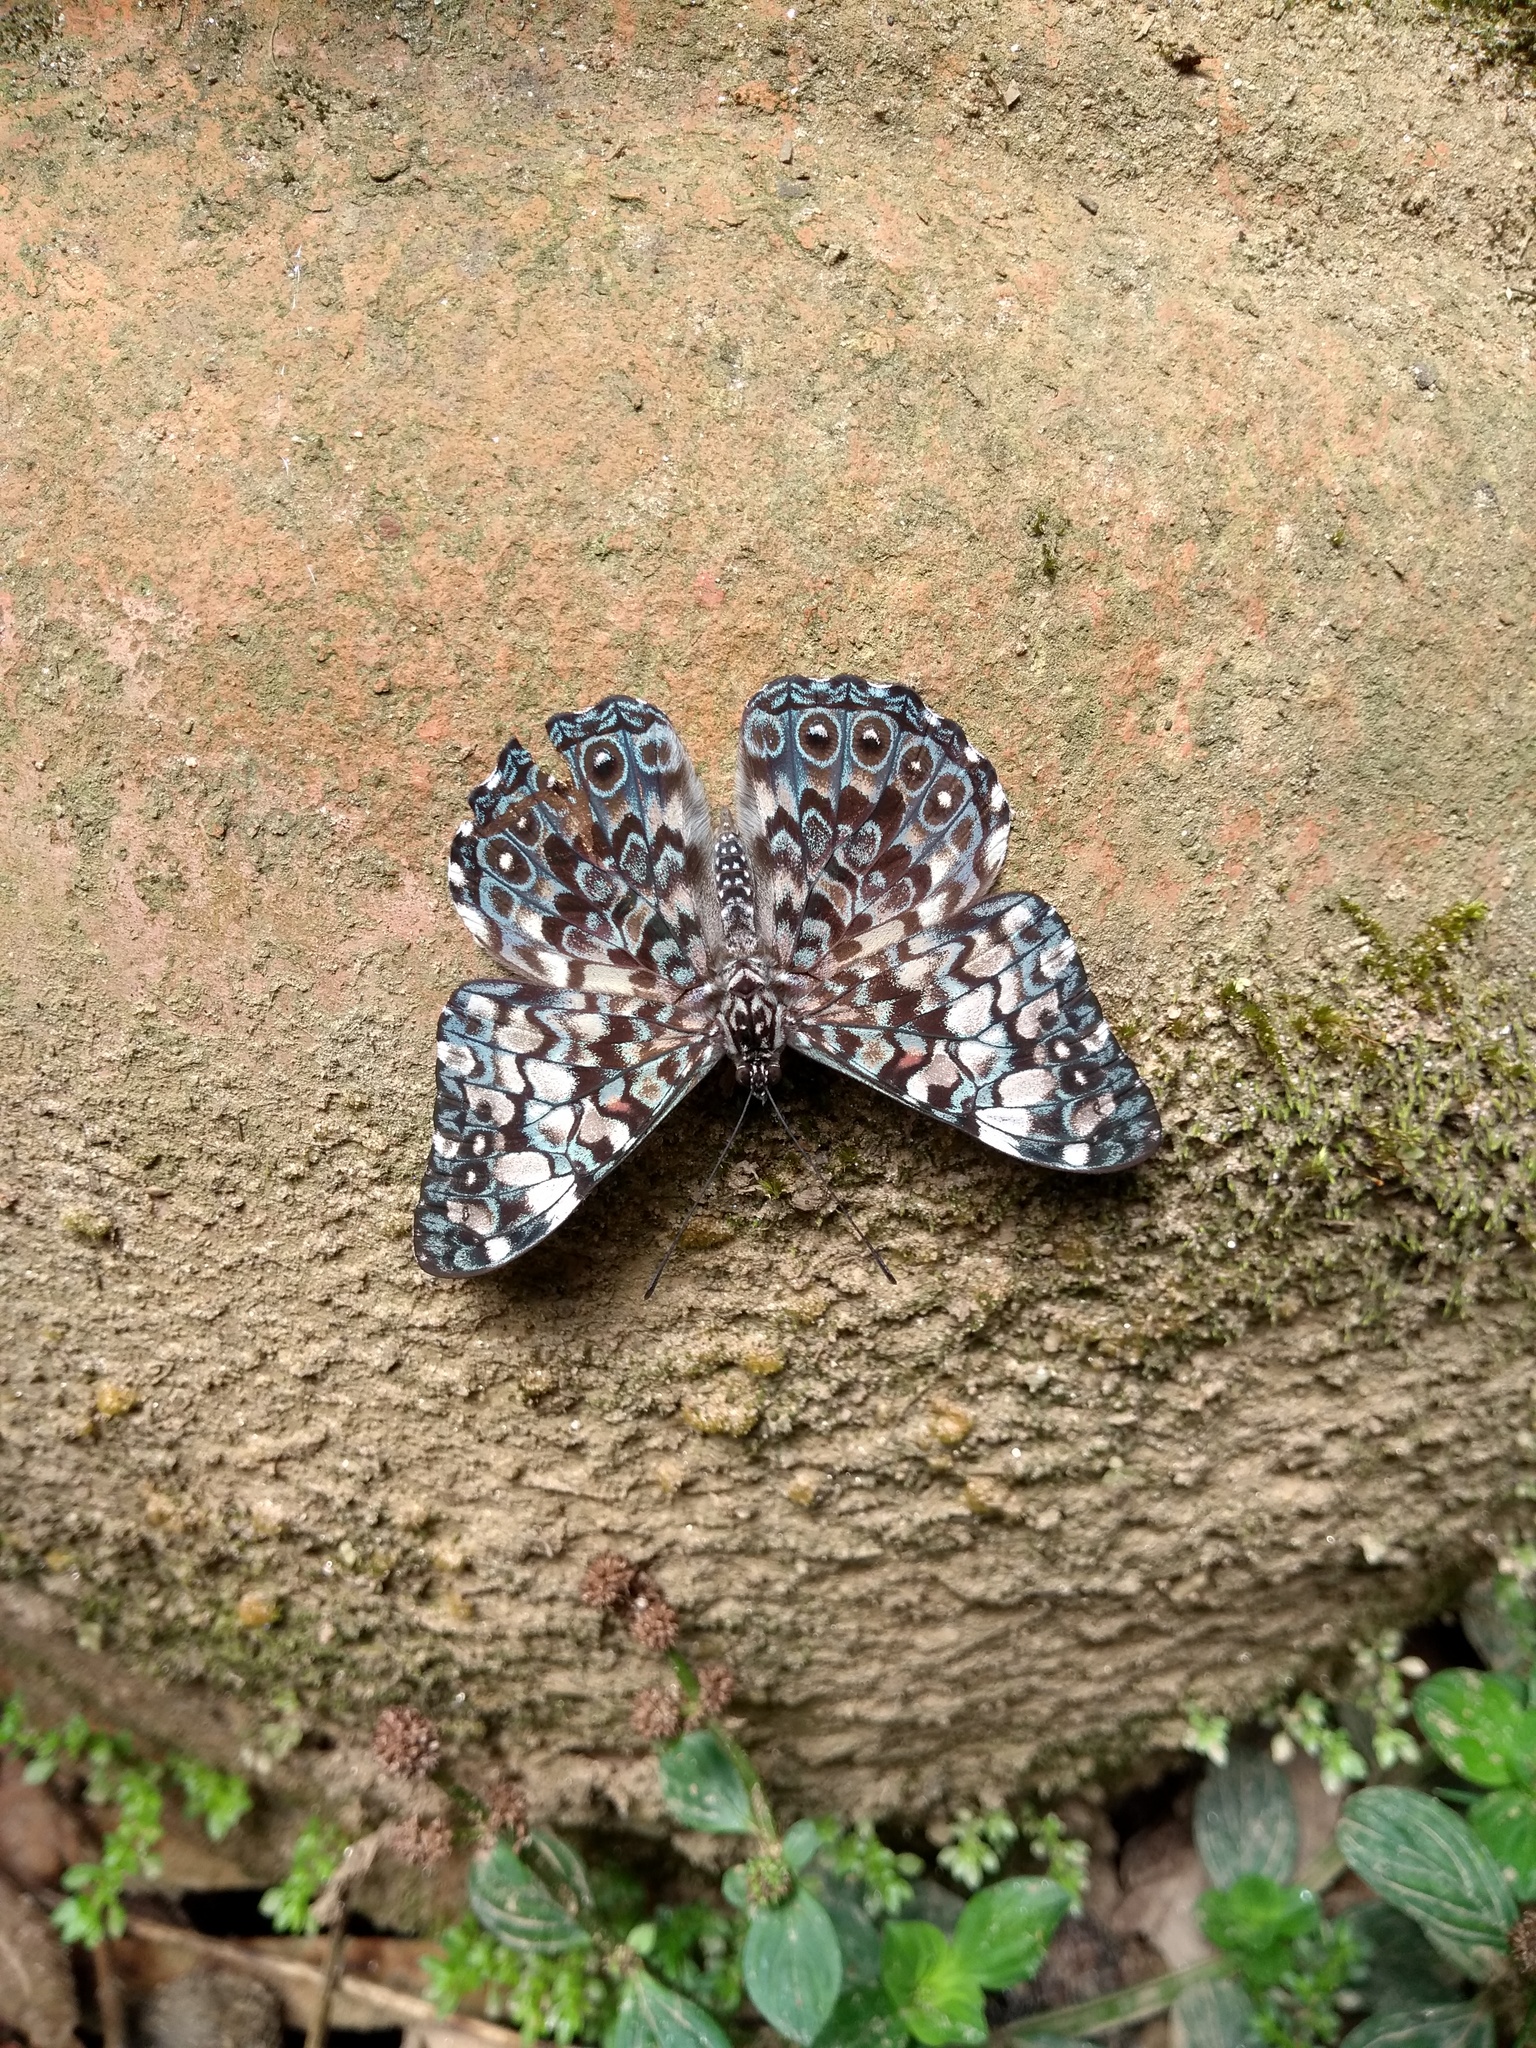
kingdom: Animalia
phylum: Arthropoda
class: Insecta
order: Lepidoptera
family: Nymphalidae
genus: Hamadryas
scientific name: Hamadryas fornax
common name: Orange cracker
